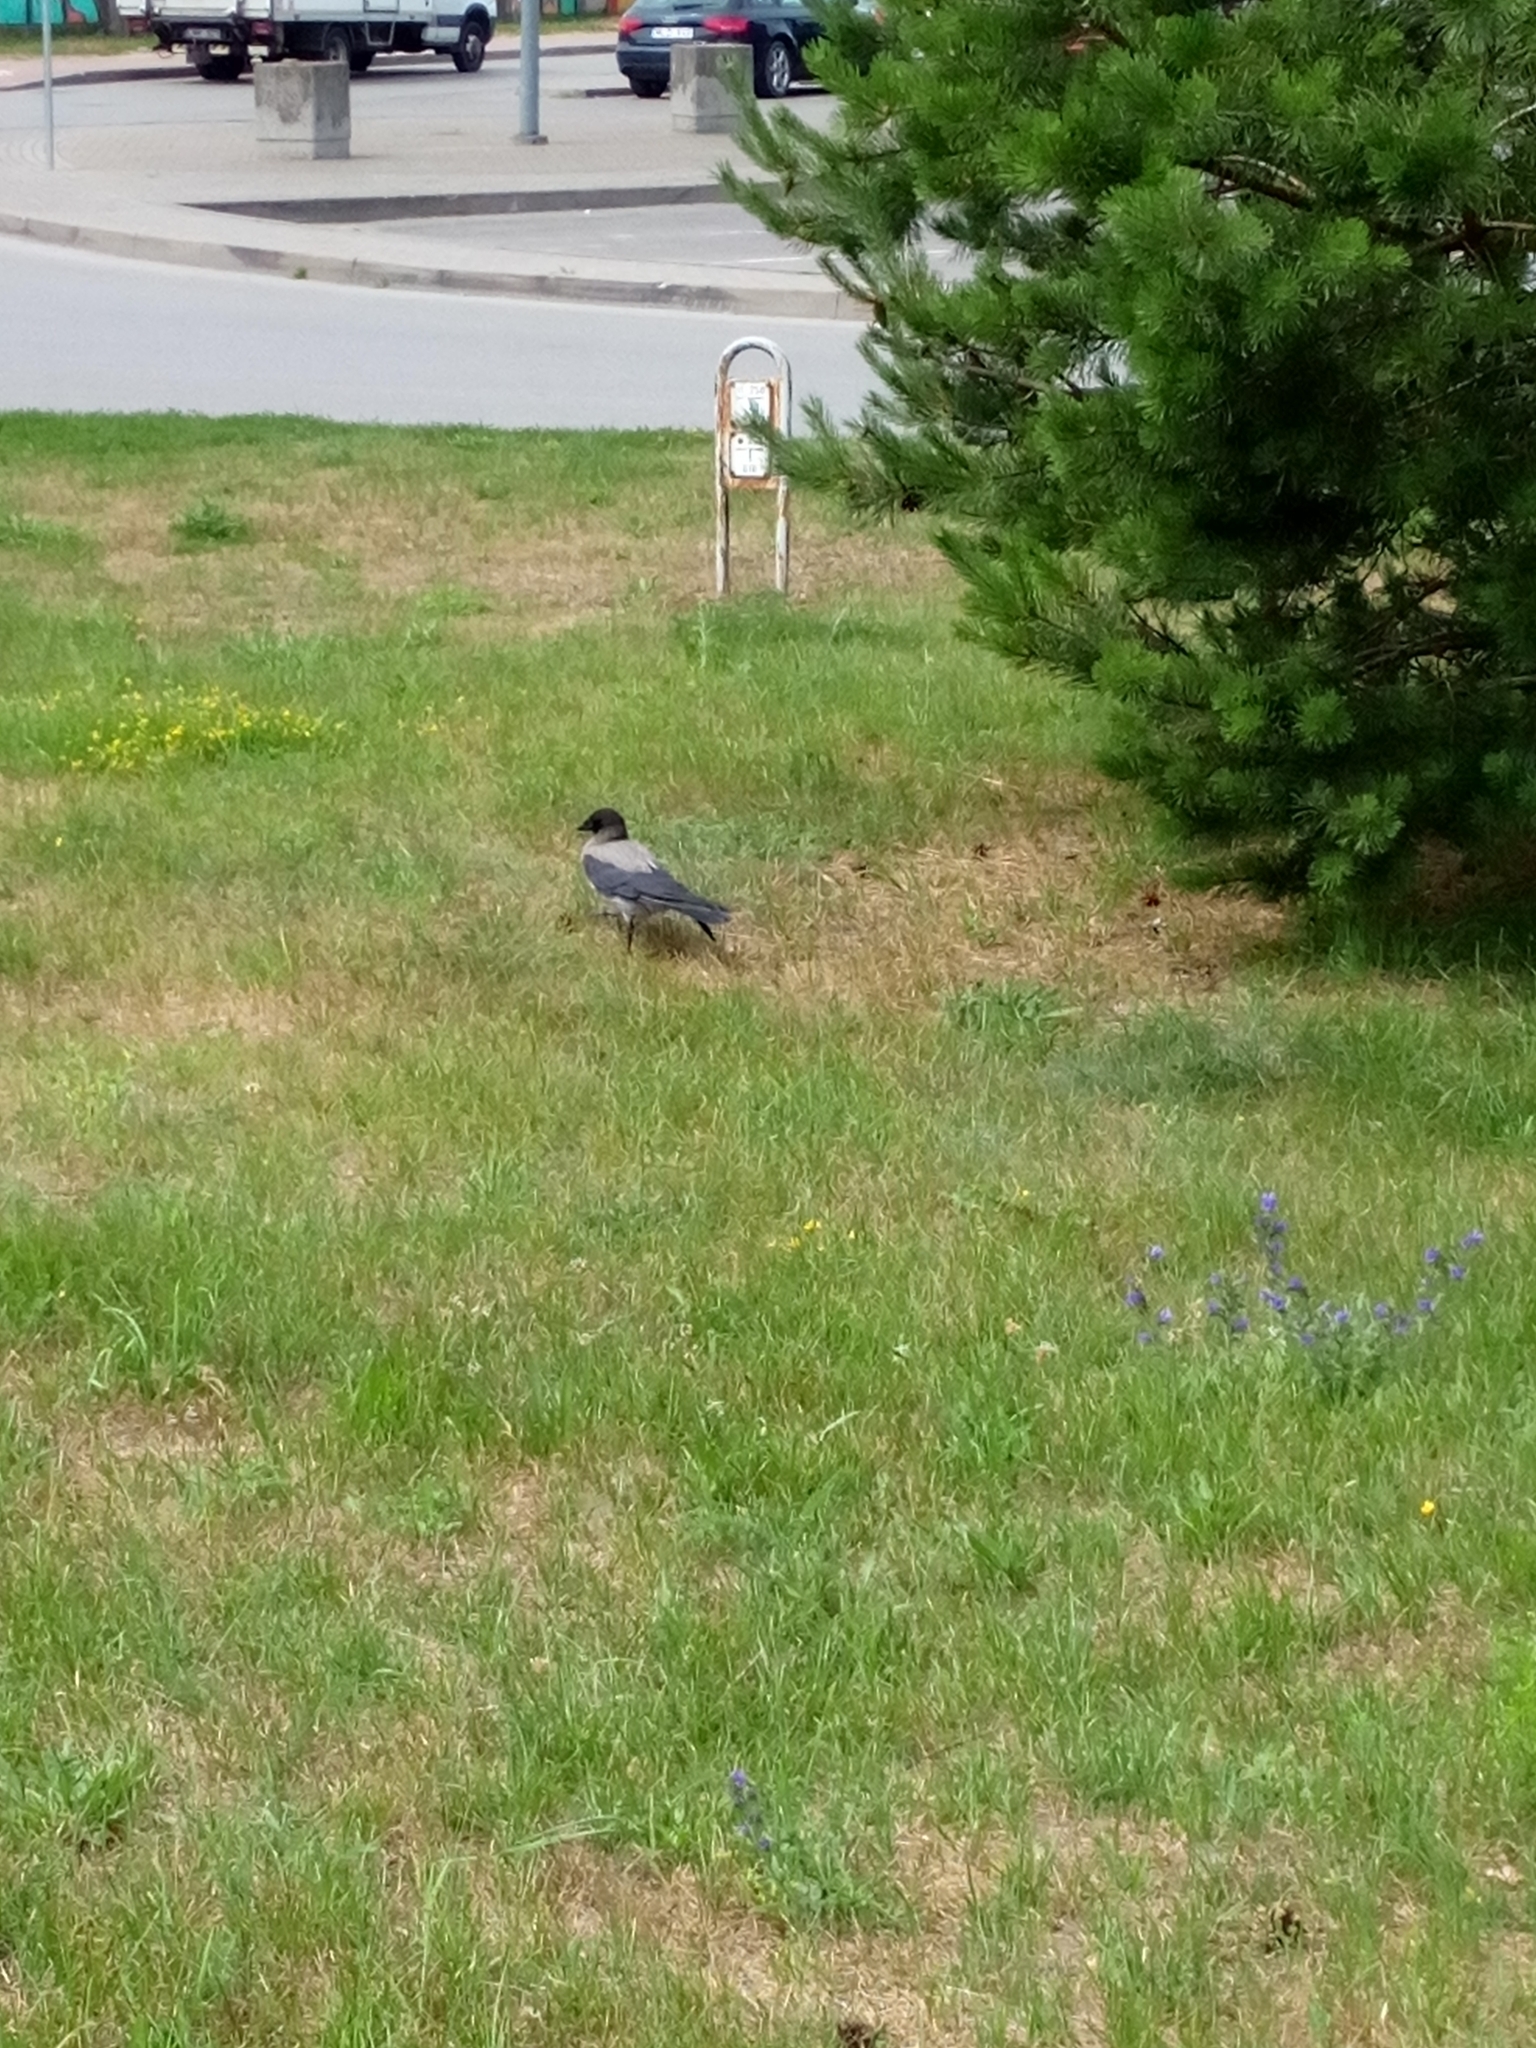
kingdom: Animalia
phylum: Chordata
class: Aves
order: Passeriformes
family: Corvidae
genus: Corvus
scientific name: Corvus cornix
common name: Hooded crow
